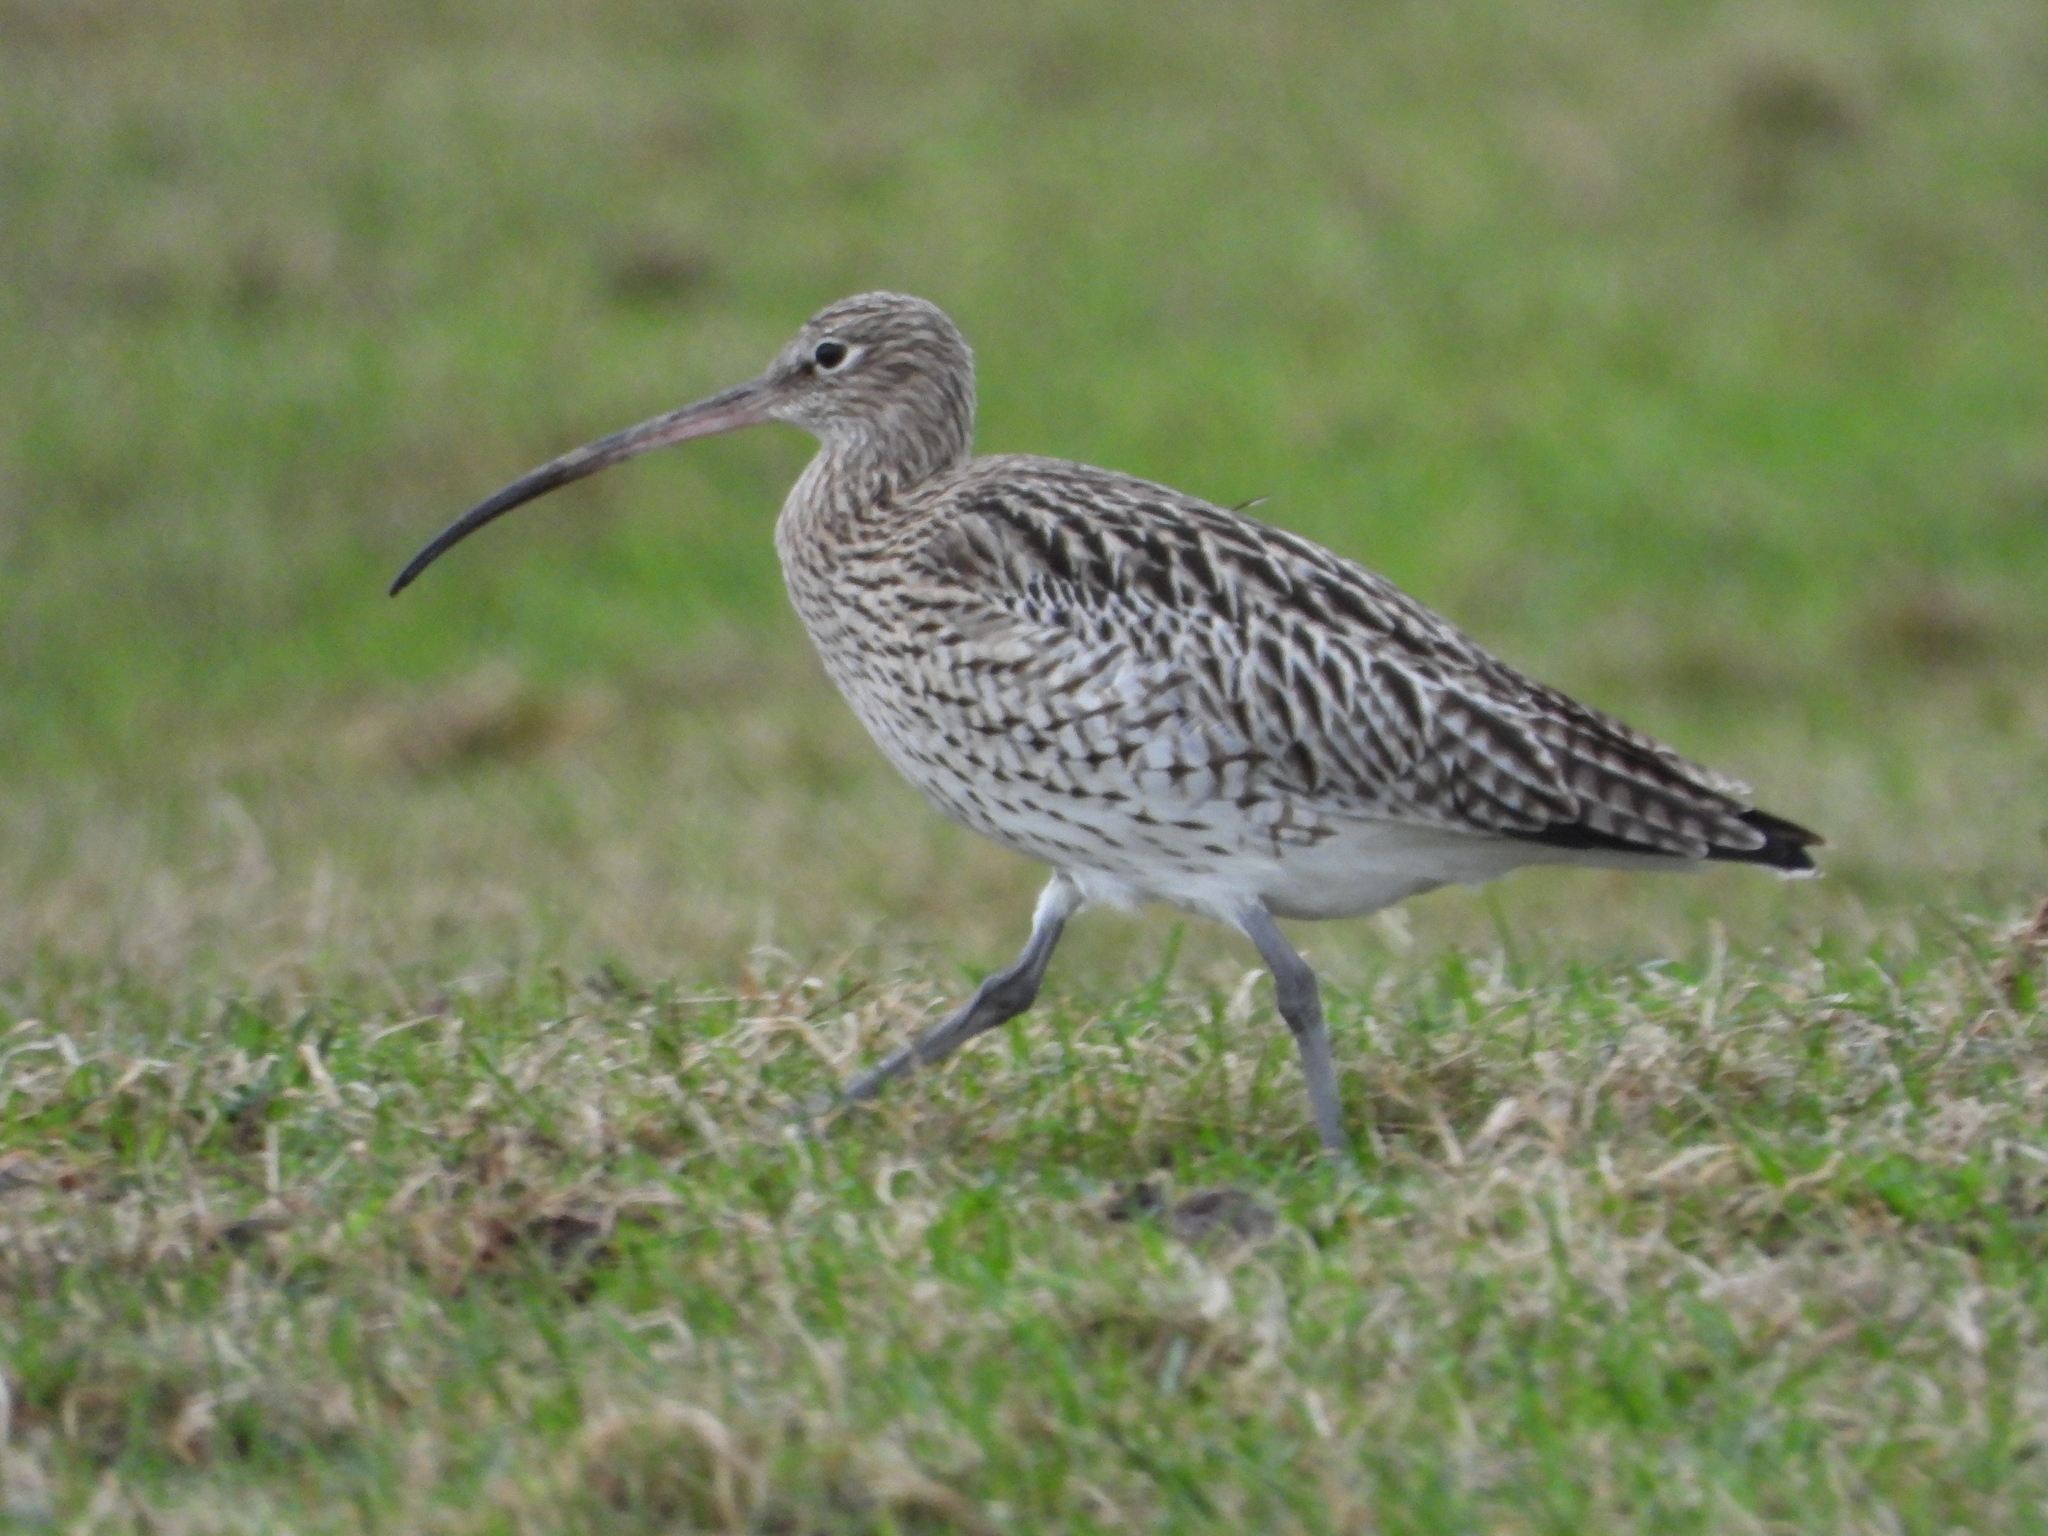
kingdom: Animalia
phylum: Chordata
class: Aves
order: Charadriiformes
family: Scolopacidae
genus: Numenius
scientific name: Numenius arquata
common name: Eurasian curlew
